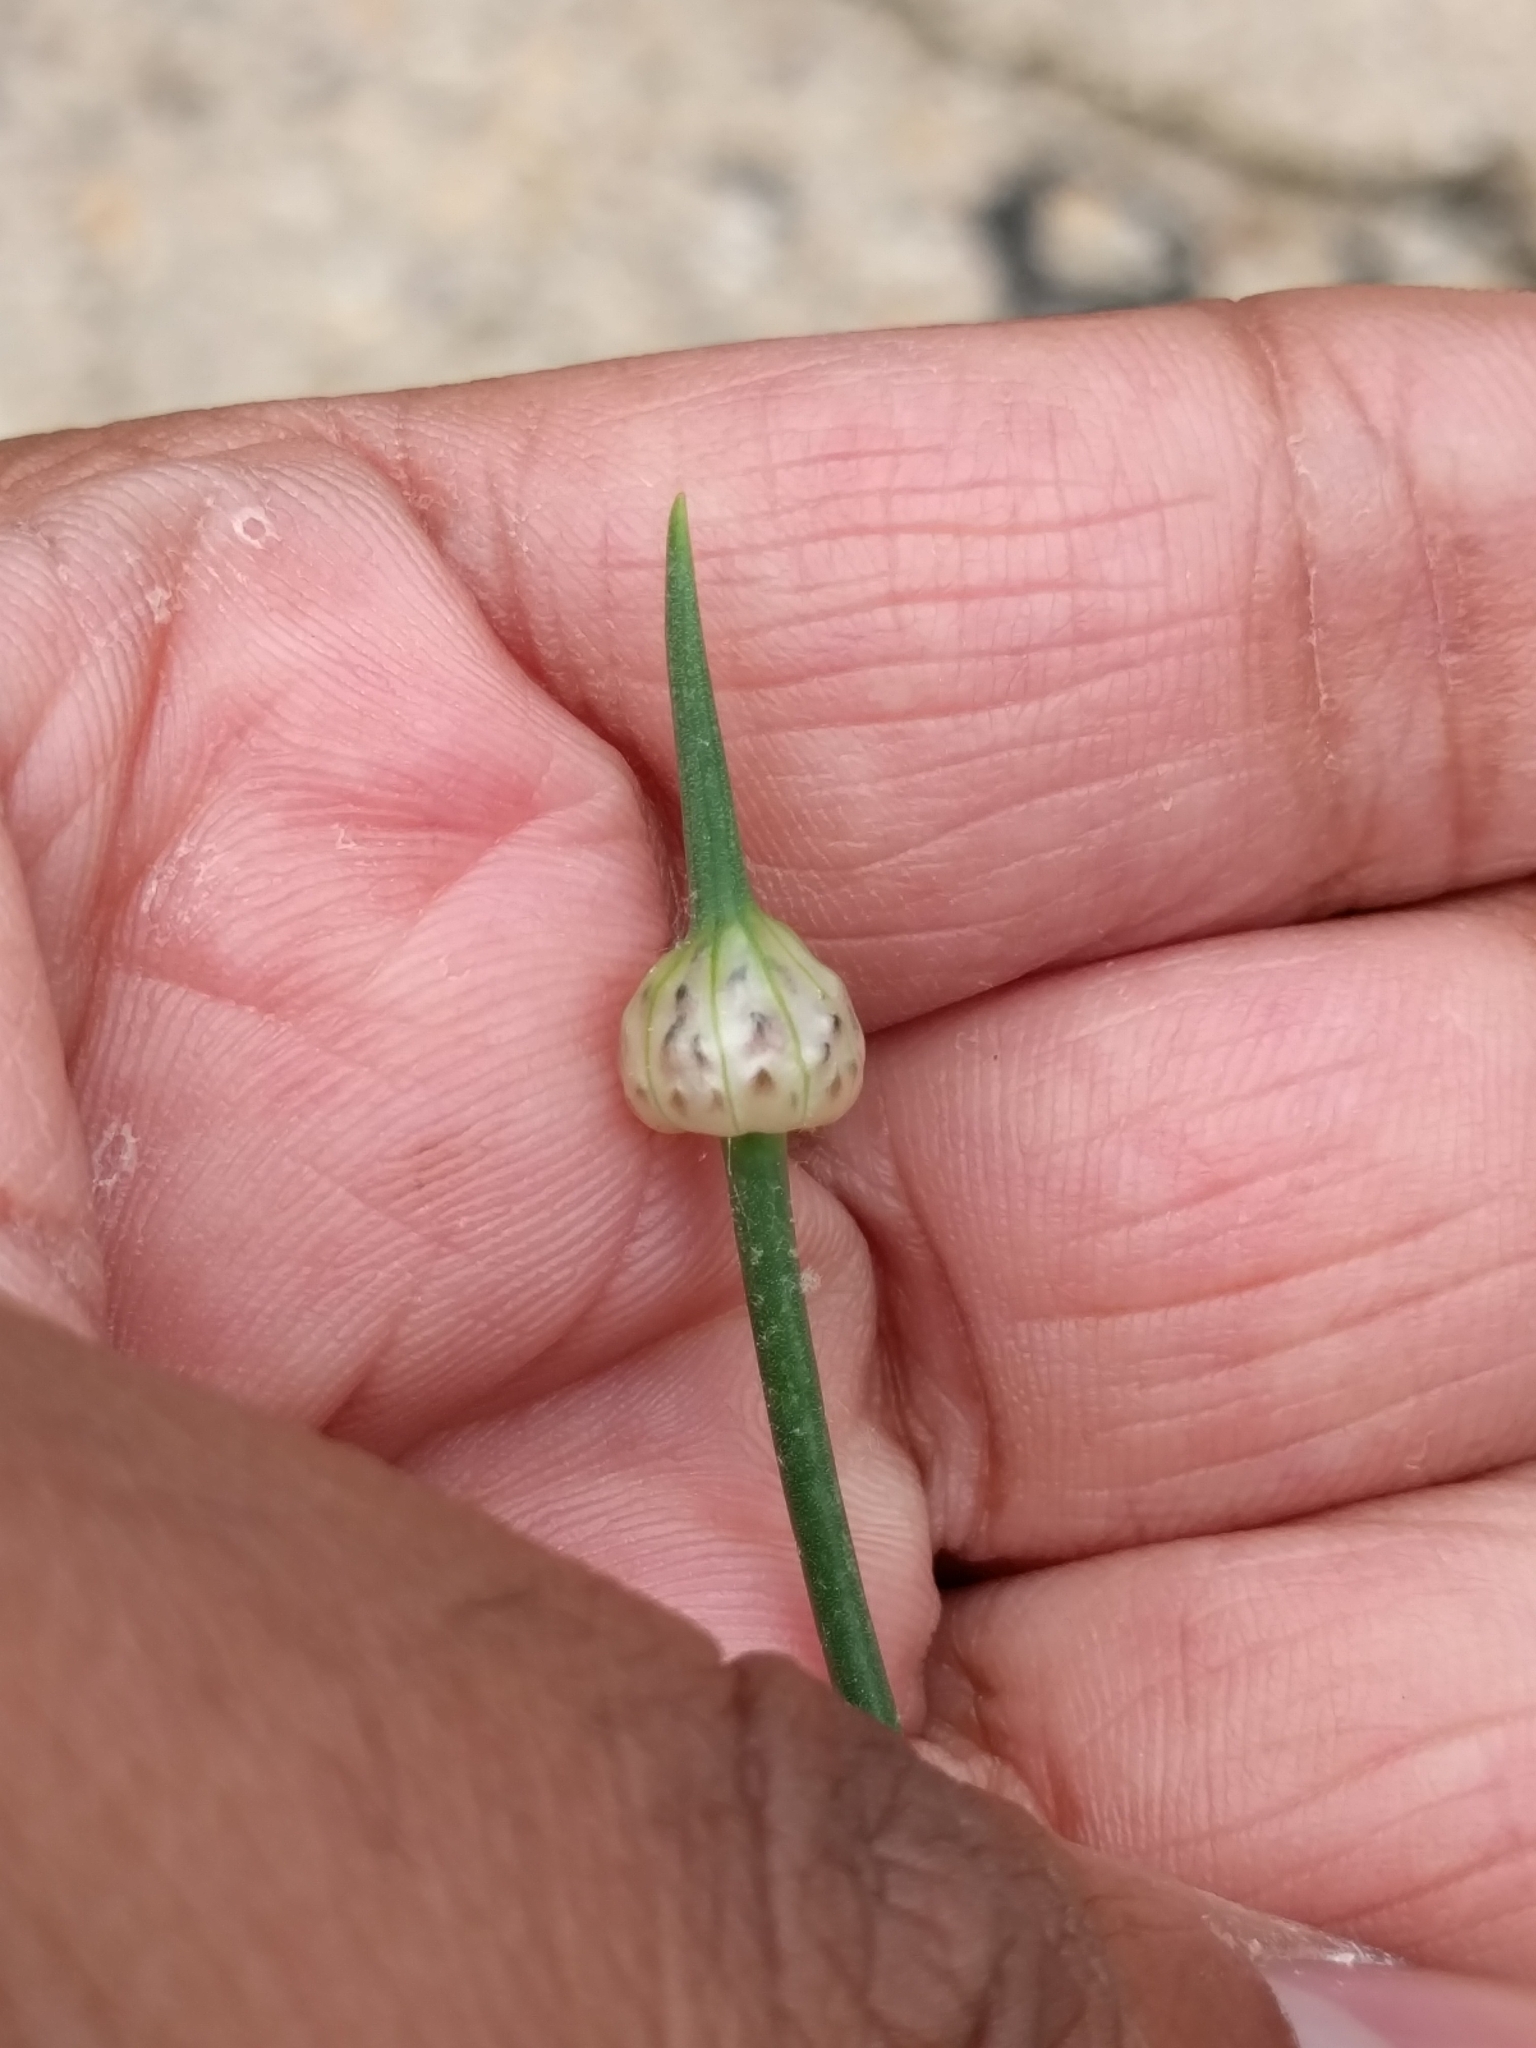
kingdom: Plantae
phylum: Tracheophyta
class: Liliopsida
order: Asparagales
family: Amaryllidaceae
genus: Allium
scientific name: Allium vineale
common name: Crow garlic
